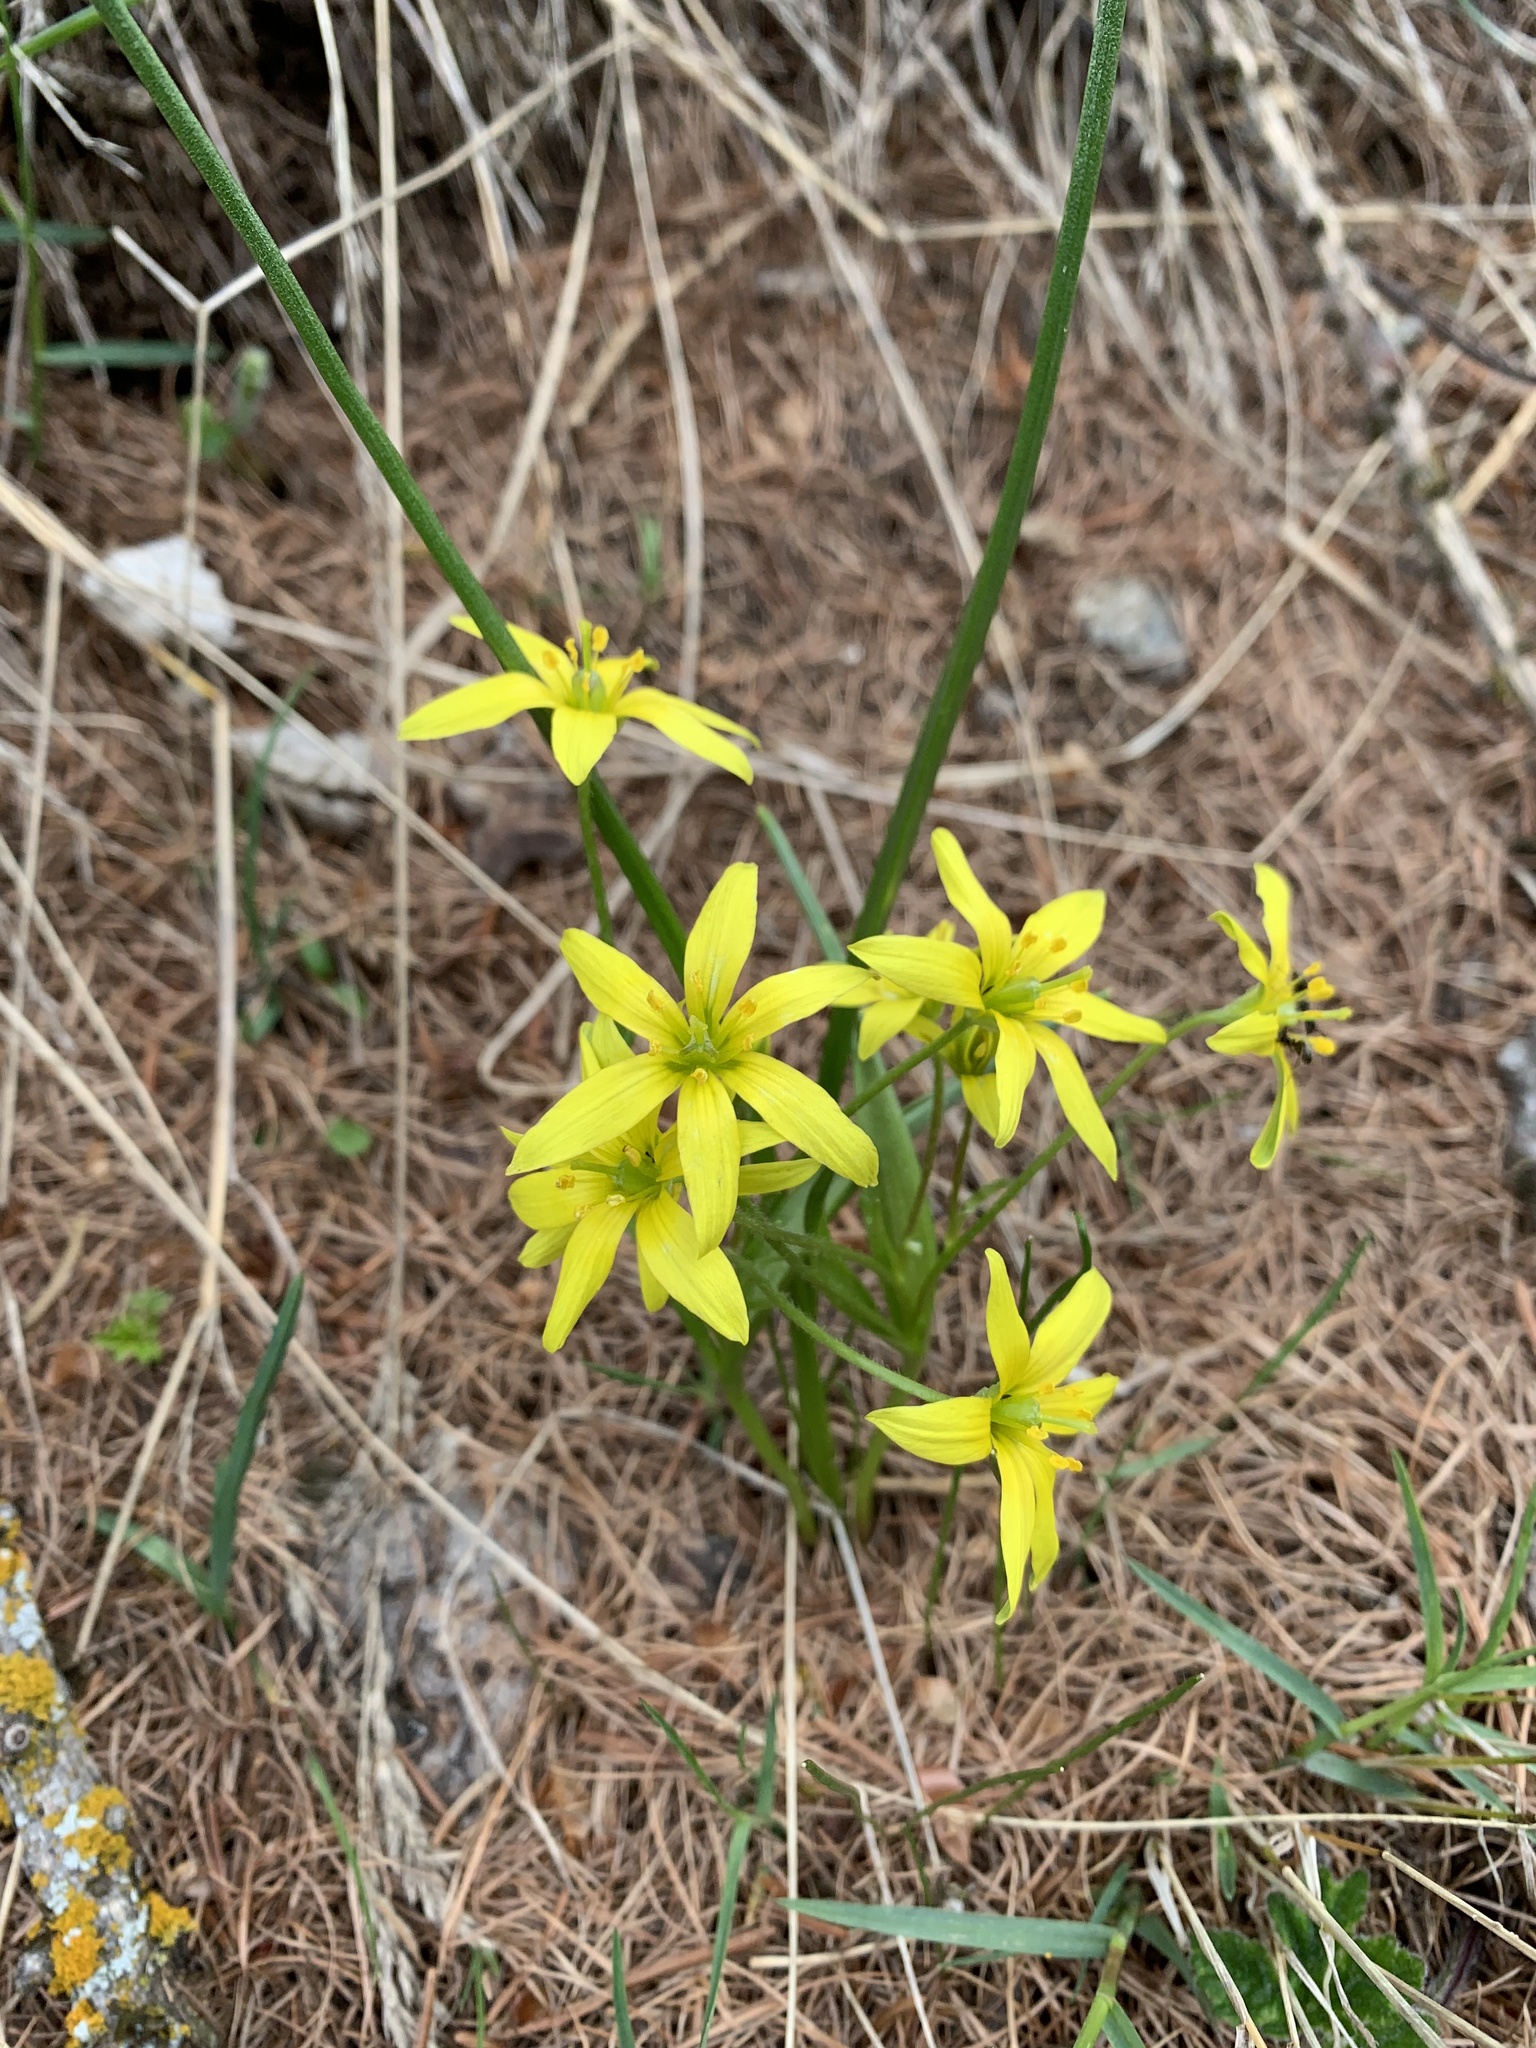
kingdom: Plantae
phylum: Tracheophyta
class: Liliopsida
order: Liliales
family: Liliaceae
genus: Gagea
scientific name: Gagea fragifera
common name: Lily
